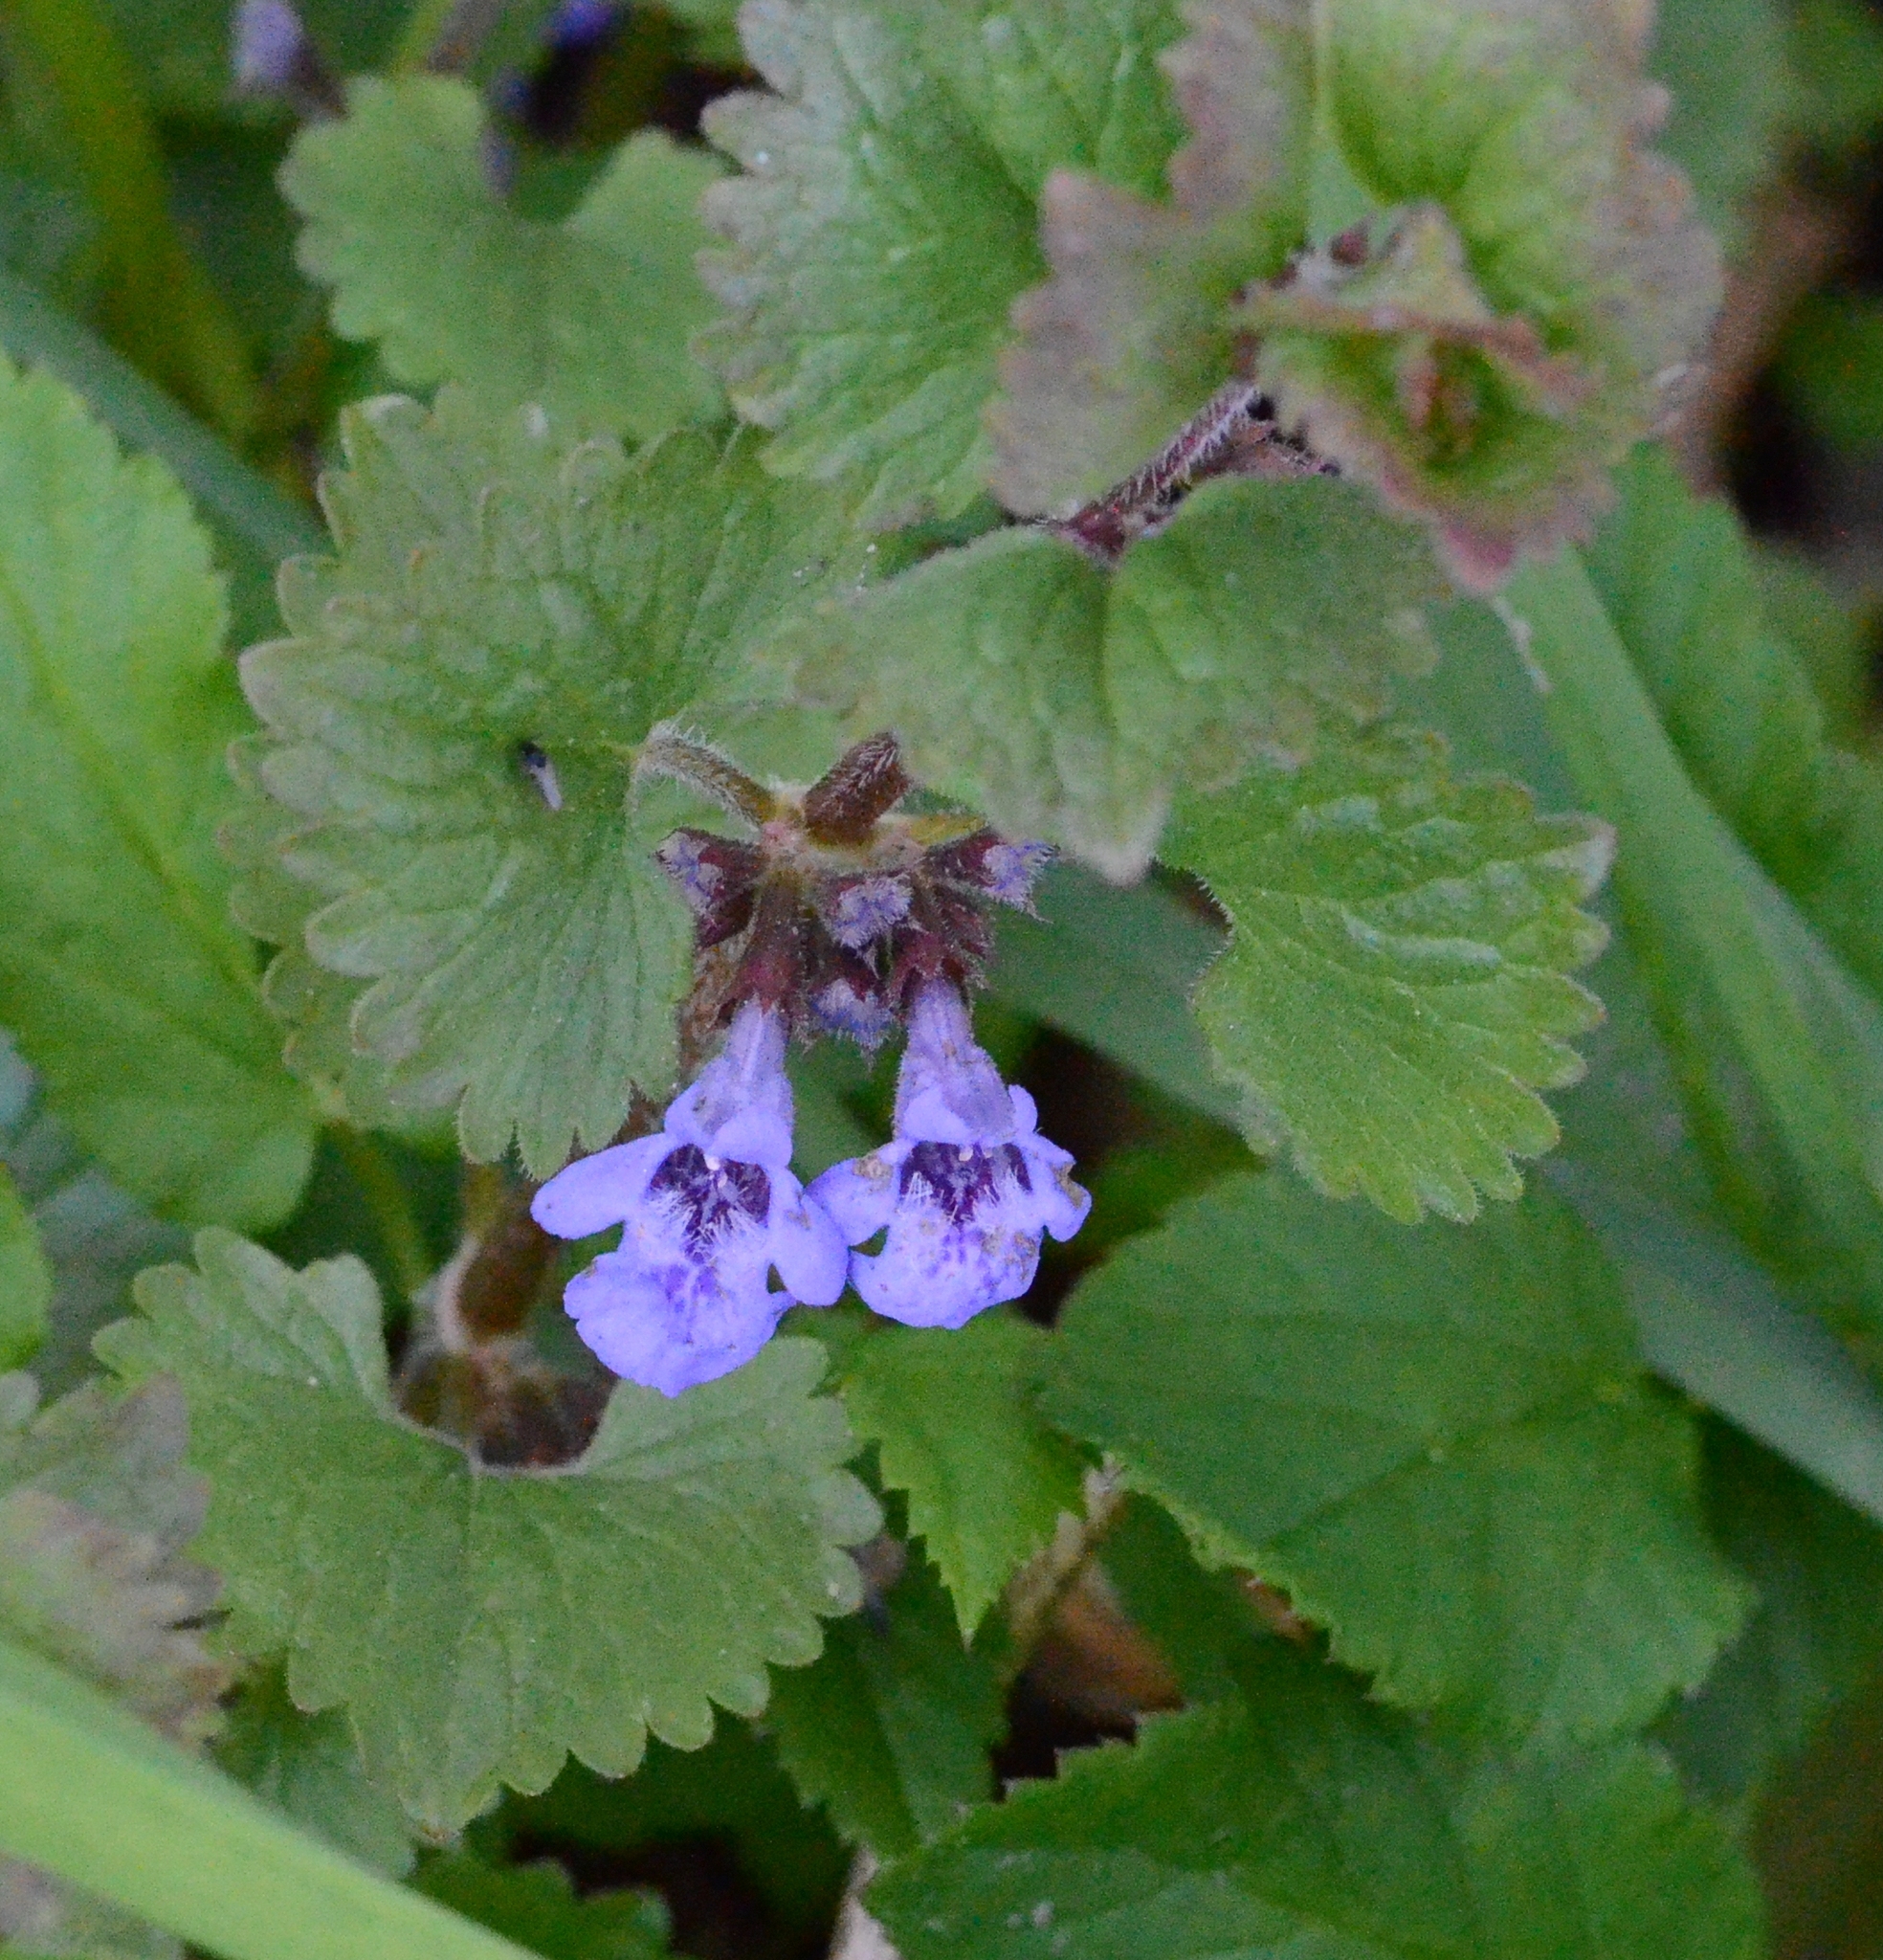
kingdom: Plantae
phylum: Tracheophyta
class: Magnoliopsida
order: Lamiales
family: Lamiaceae
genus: Glechoma
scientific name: Glechoma hederacea
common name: Ground ivy
